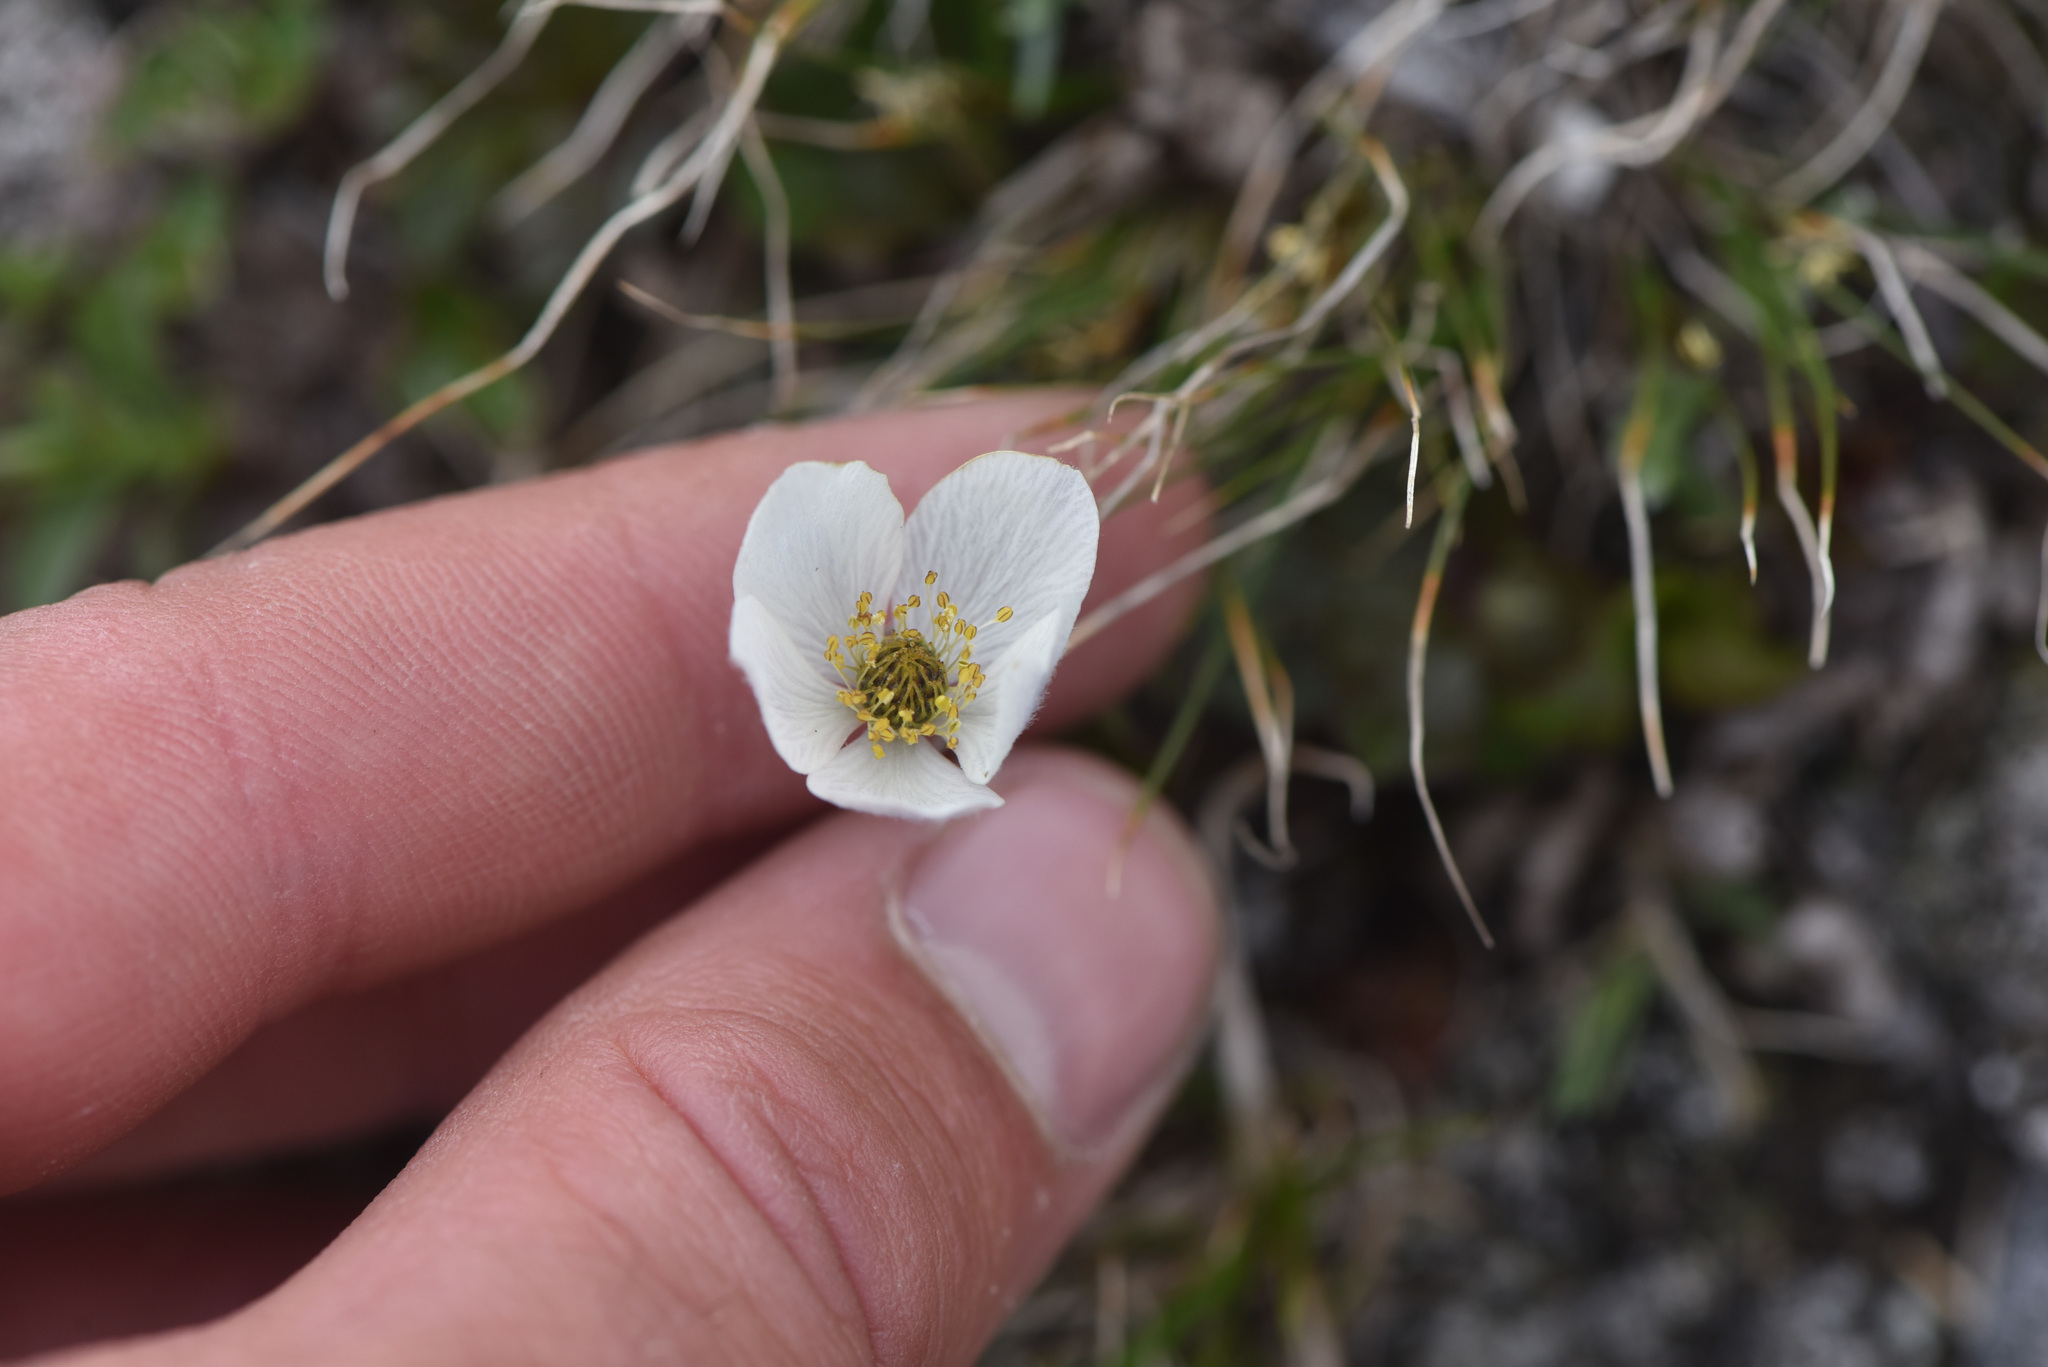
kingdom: Plantae
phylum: Tracheophyta
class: Magnoliopsida
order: Ranunculales
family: Ranunculaceae
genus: Anemone
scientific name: Anemone parviflora
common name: Northern anemone
